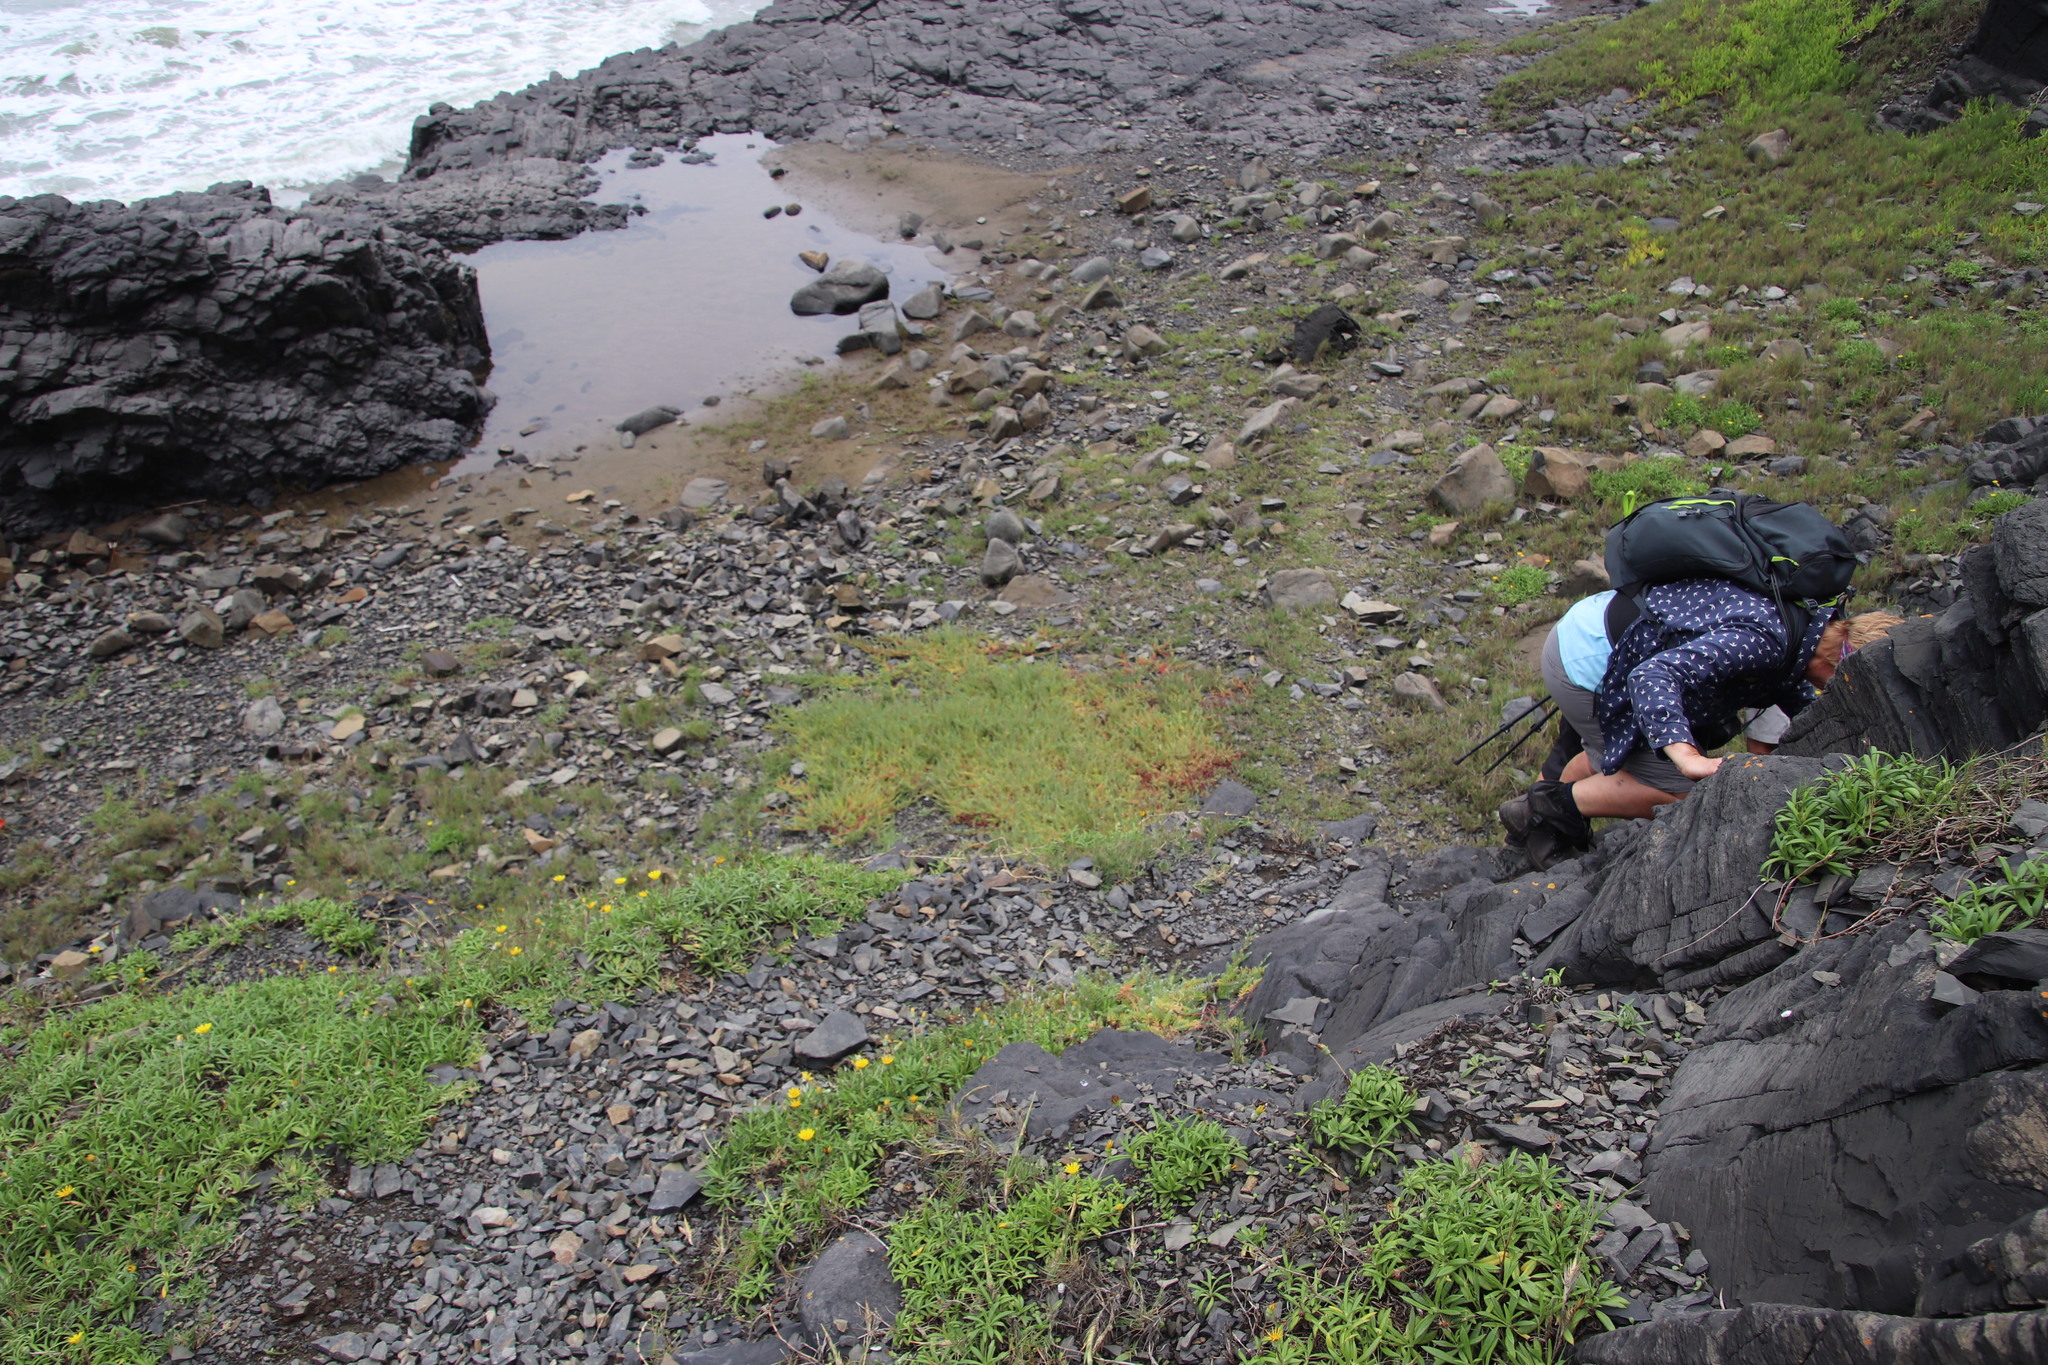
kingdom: Plantae
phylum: Tracheophyta
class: Magnoliopsida
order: Asterales
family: Asteraceae
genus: Gazania
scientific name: Gazania rigens
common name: Treasureflower
